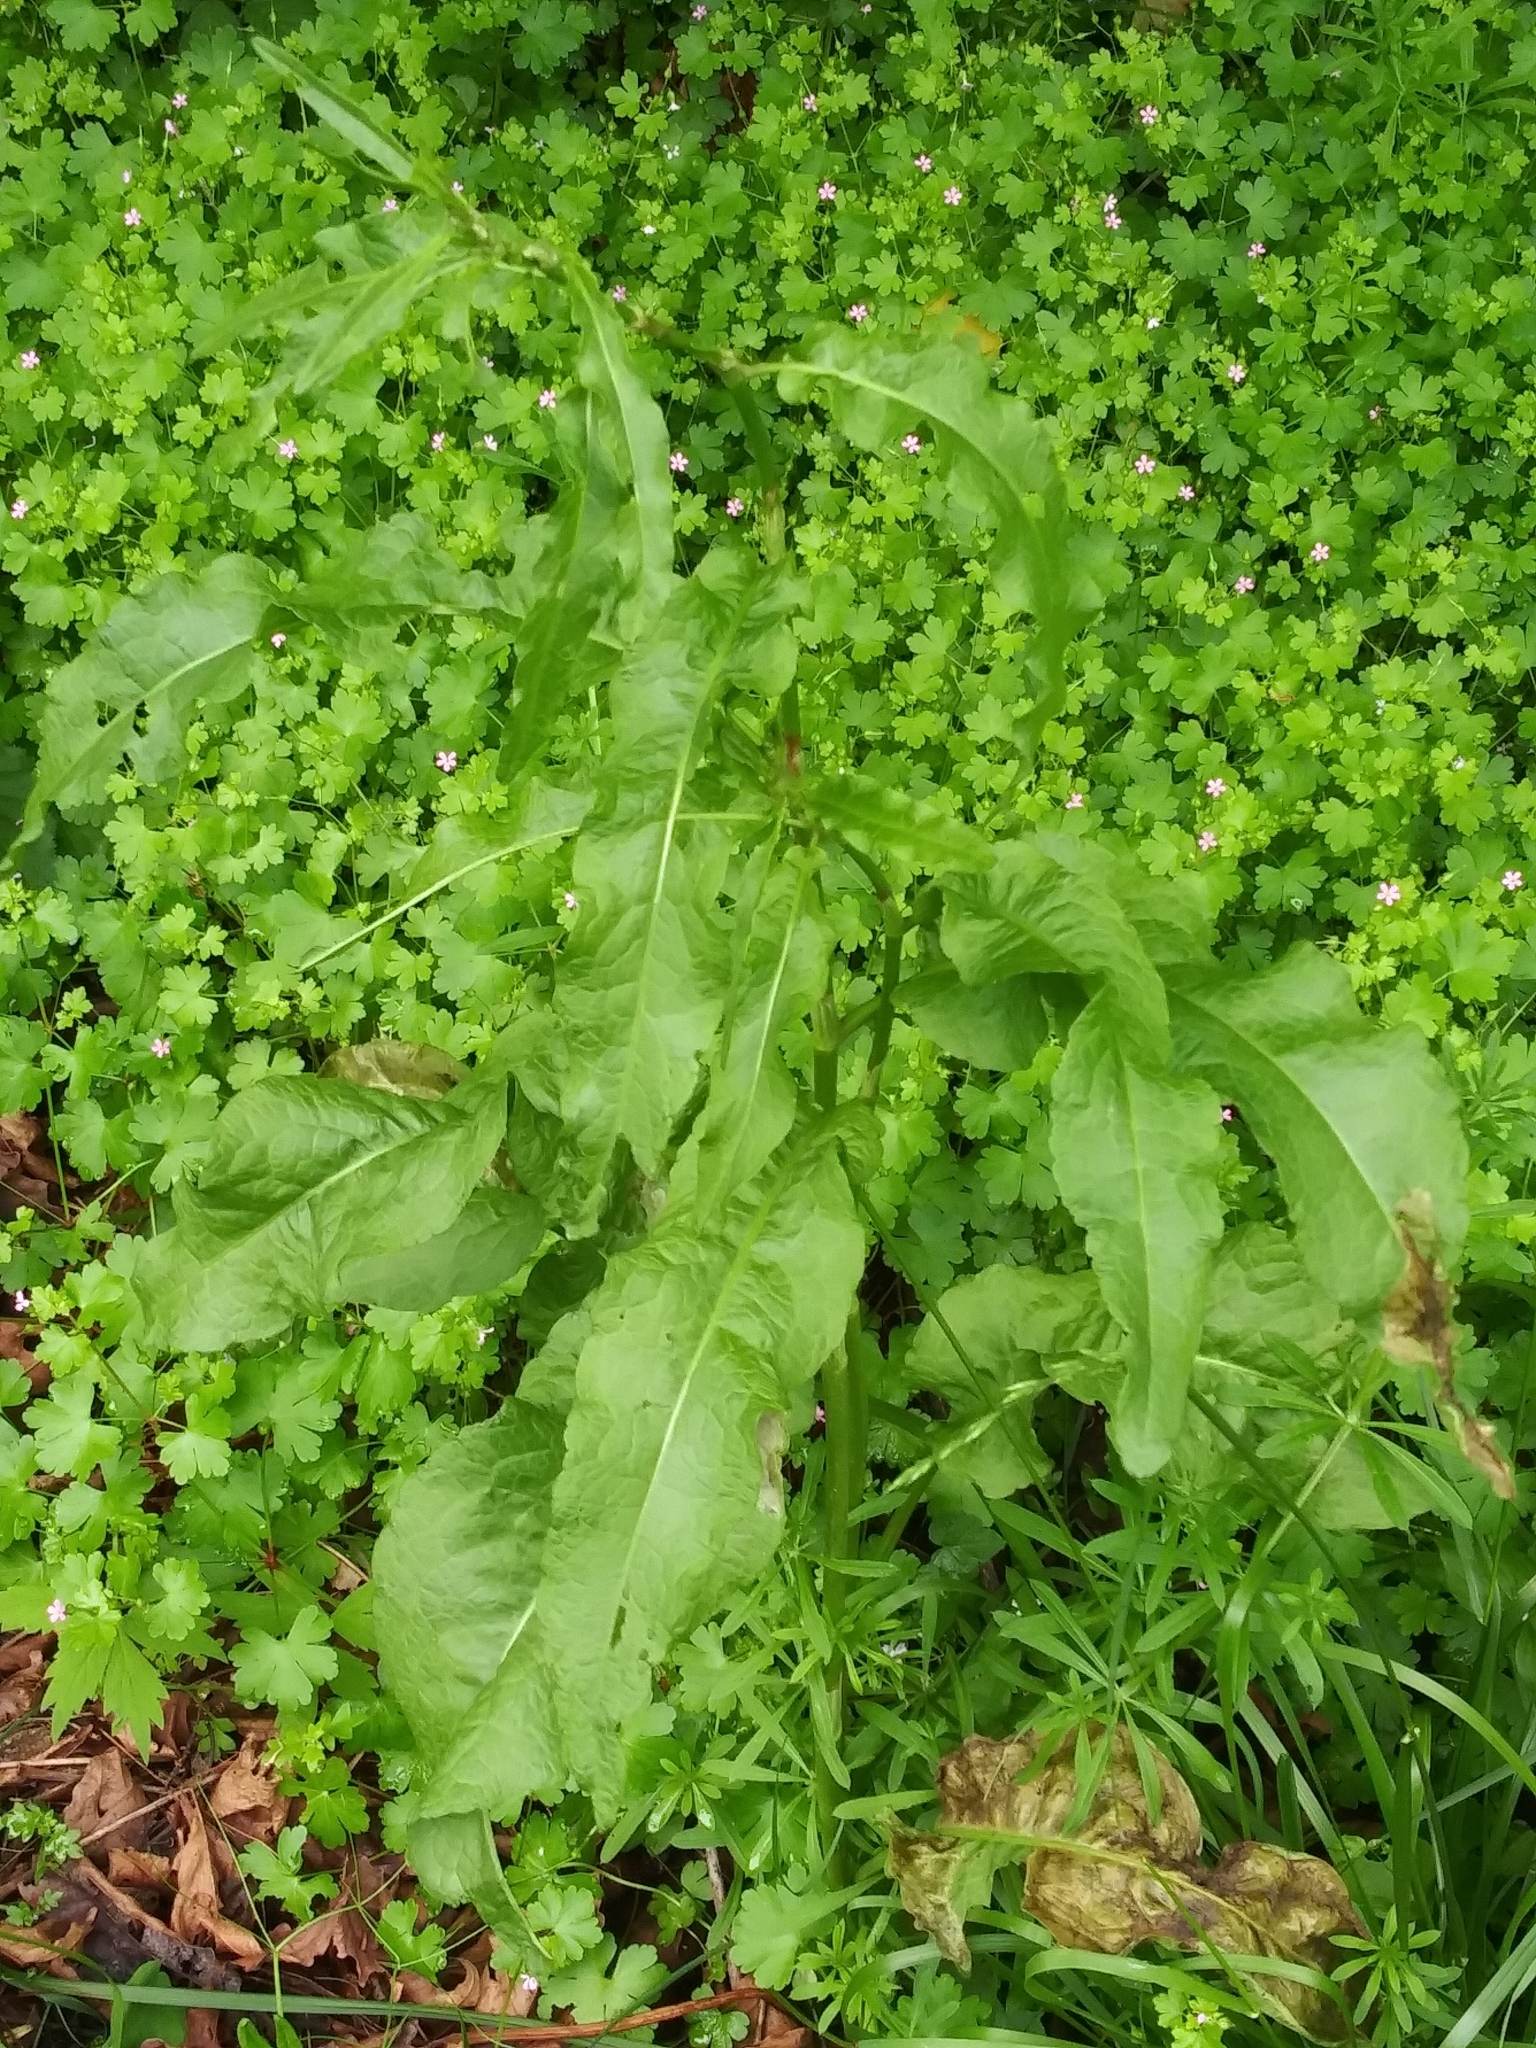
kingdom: Plantae
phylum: Tracheophyta
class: Magnoliopsida
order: Caryophyllales
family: Polygonaceae
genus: Rumex
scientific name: Rumex crispus
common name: Curled dock
